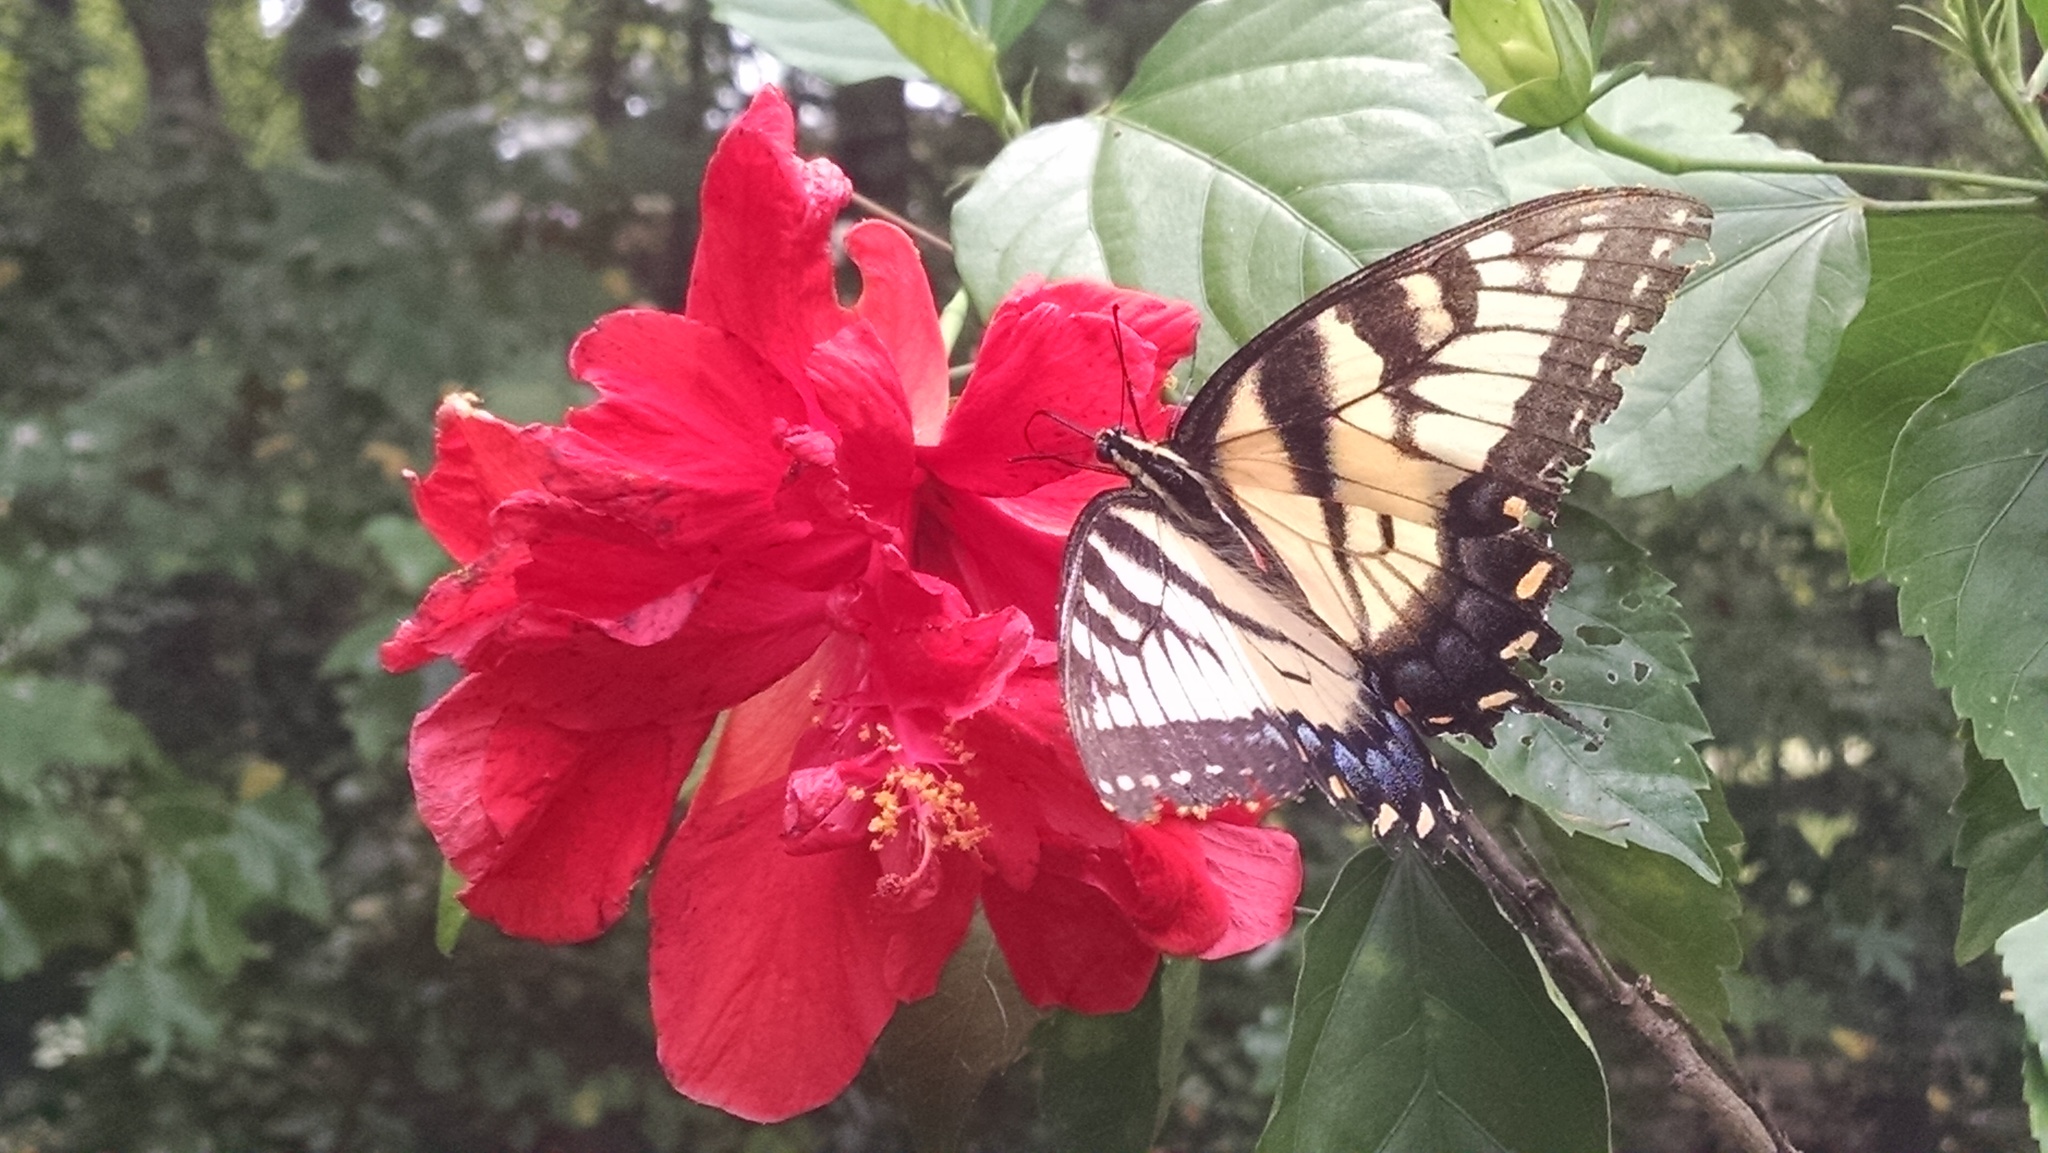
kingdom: Animalia
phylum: Arthropoda
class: Insecta
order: Lepidoptera
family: Papilionidae
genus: Papilio
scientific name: Papilio glaucus
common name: Tiger swallowtail
